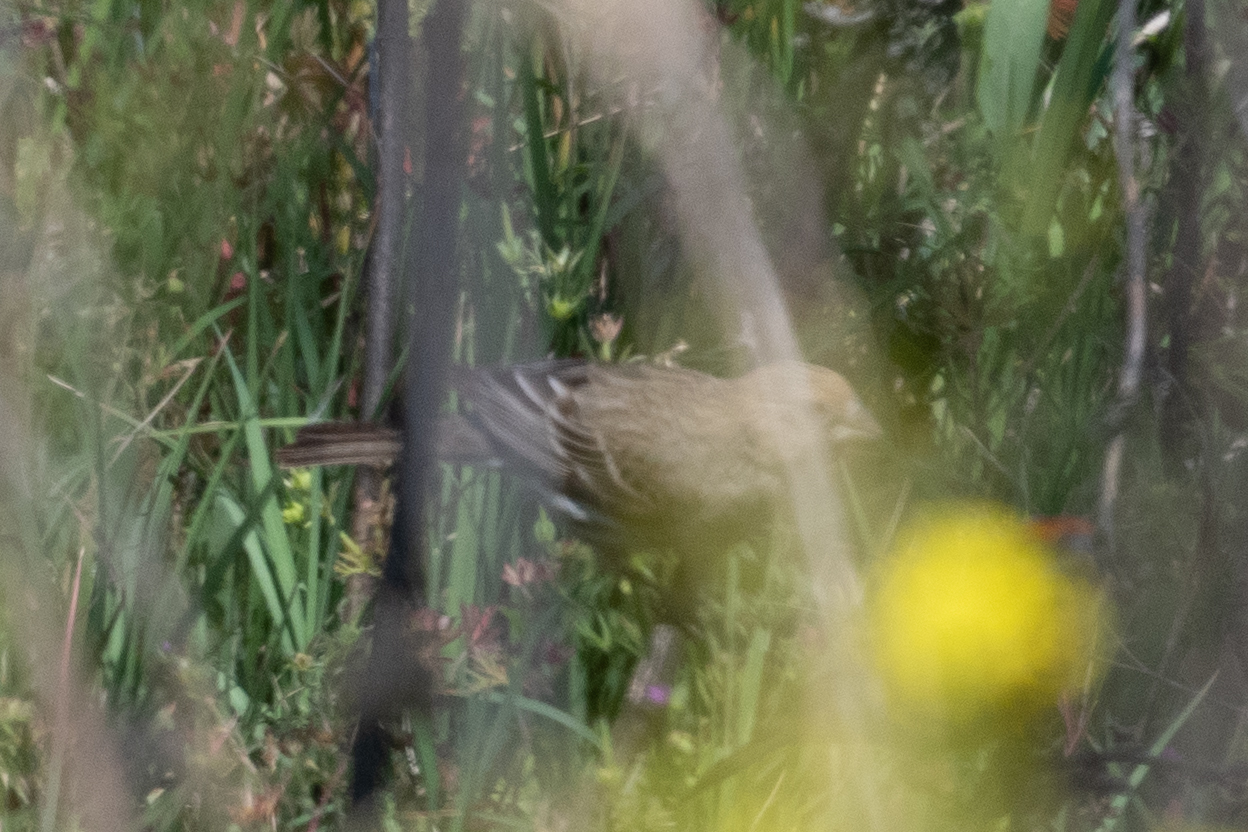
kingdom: Animalia
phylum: Chordata
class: Aves
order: Passeriformes
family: Fringillidae
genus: Haemorhous
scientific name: Haemorhous mexicanus
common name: House finch
